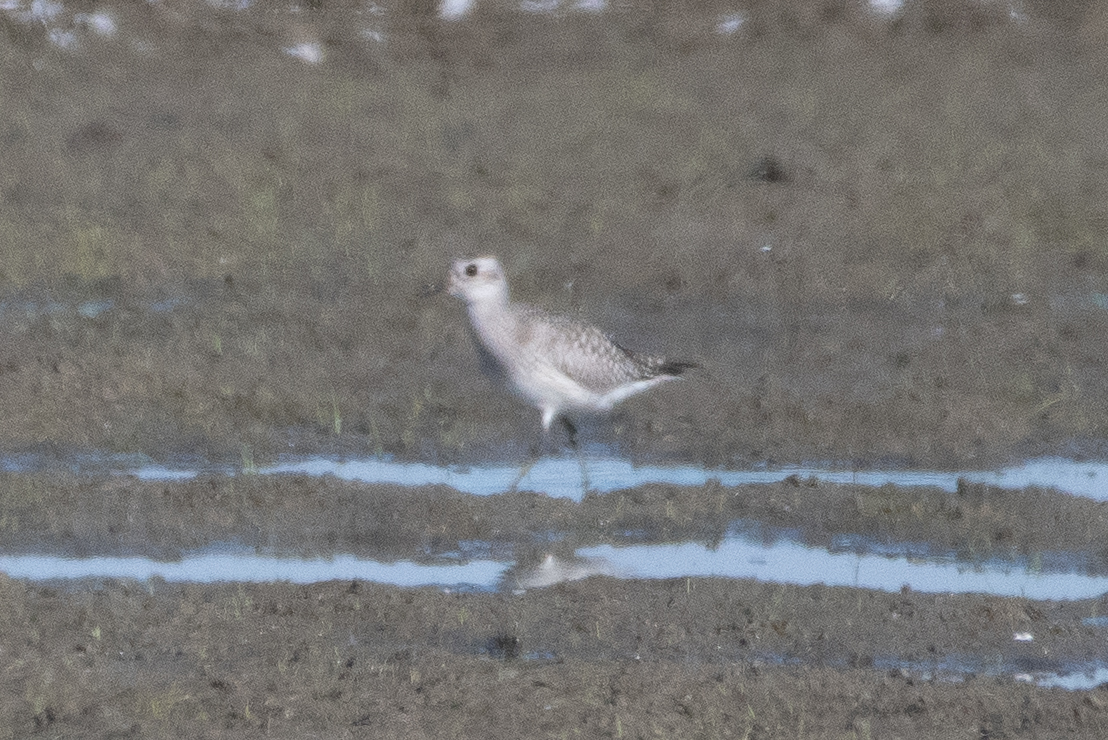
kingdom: Animalia
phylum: Chordata
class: Aves
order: Charadriiformes
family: Charadriidae
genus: Pluvialis
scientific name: Pluvialis squatarola
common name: Grey plover
